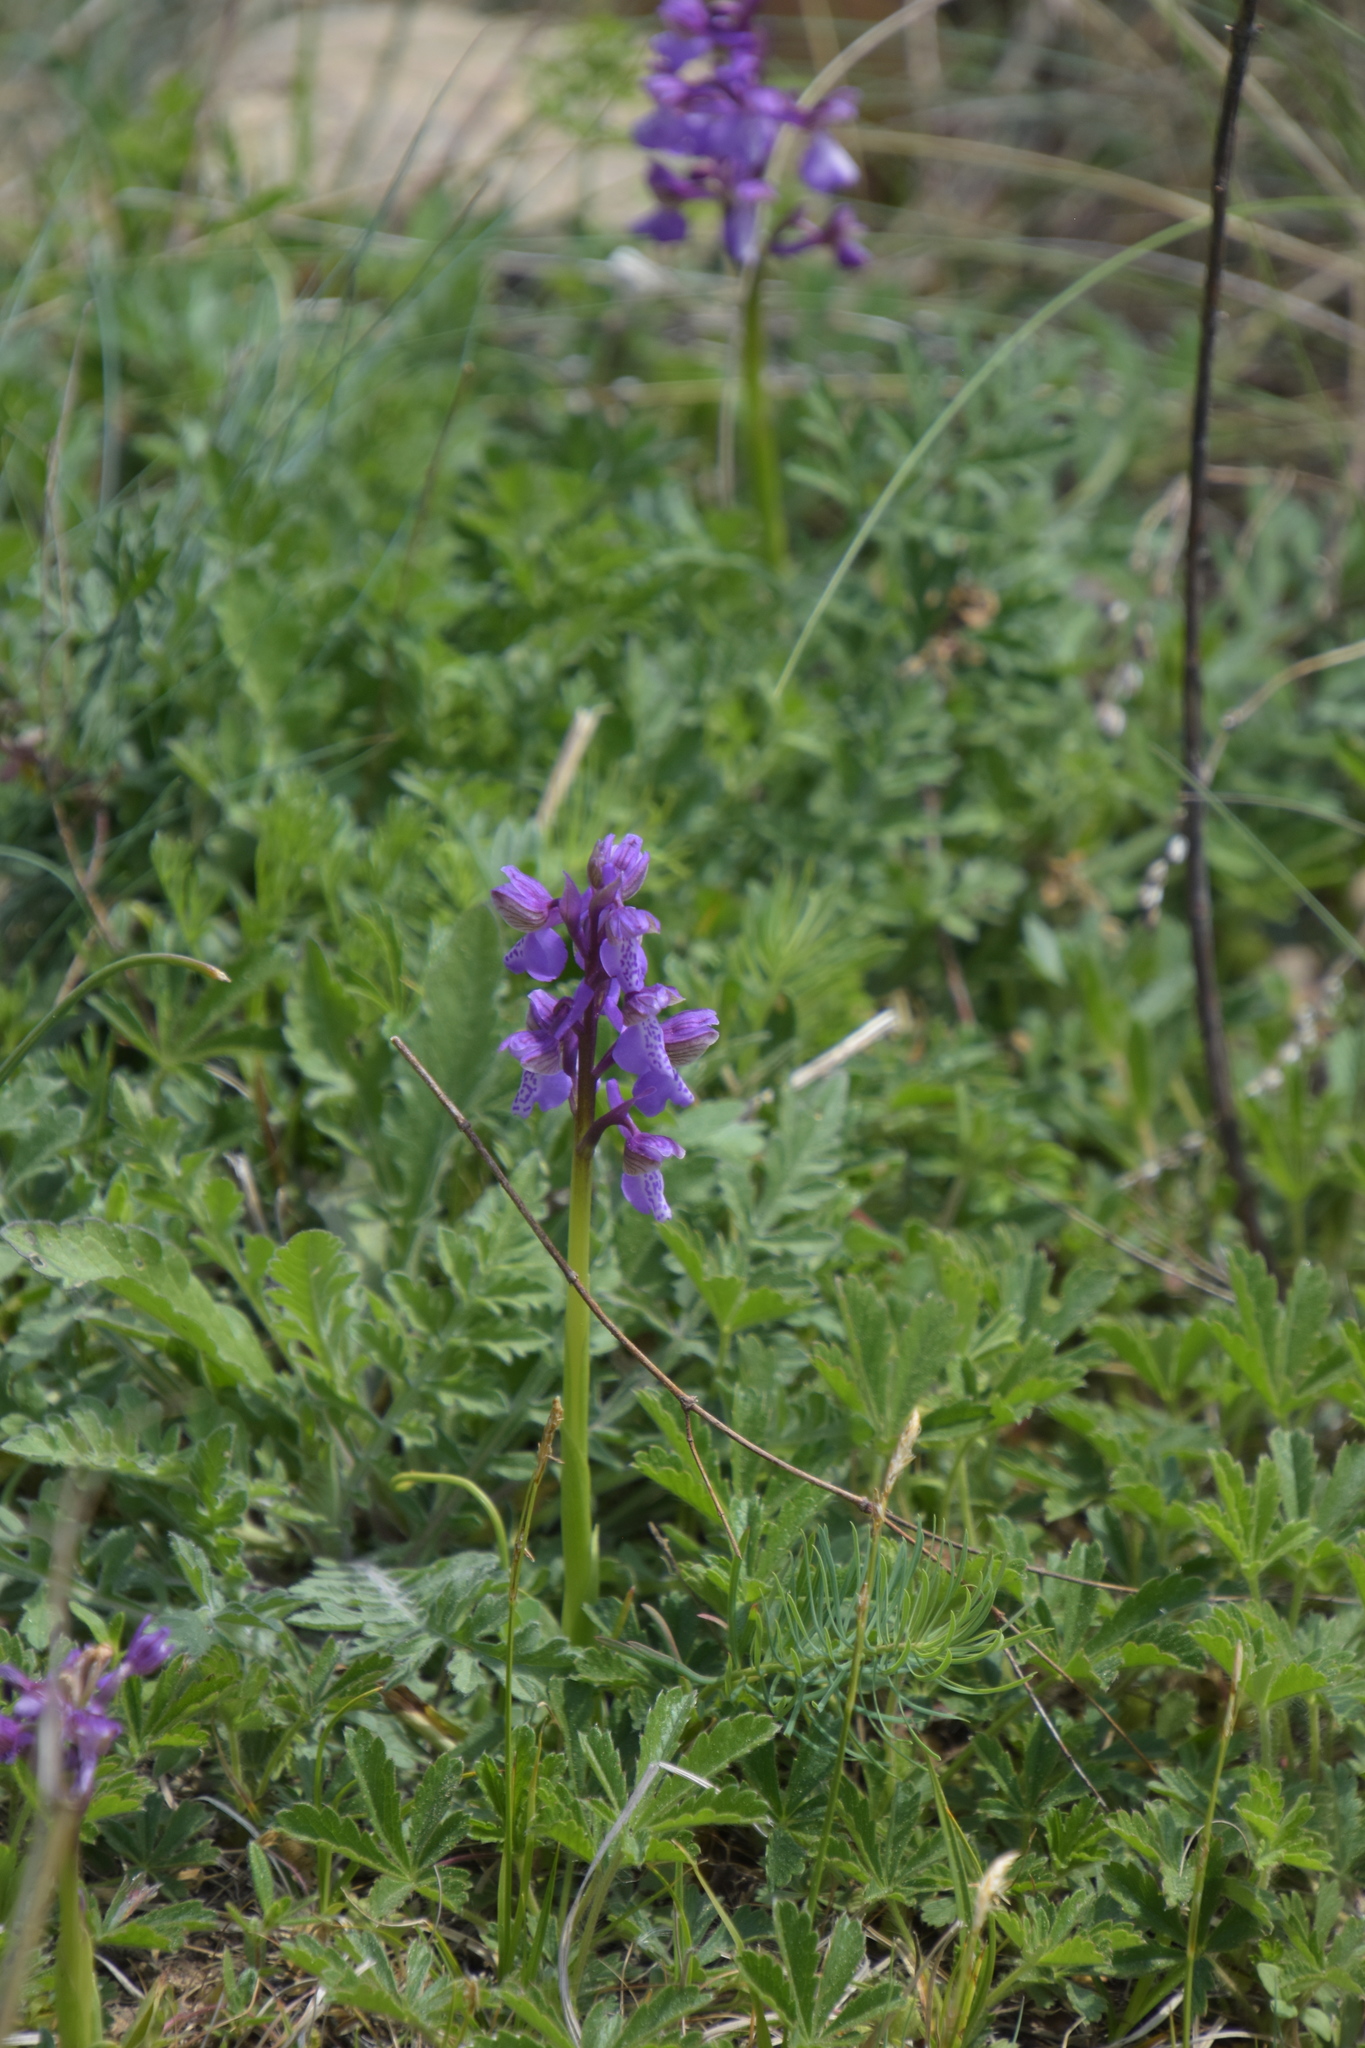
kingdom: Plantae
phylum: Tracheophyta
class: Liliopsida
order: Asparagales
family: Orchidaceae
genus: Anacamptis
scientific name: Anacamptis morio
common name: Green-winged orchid
